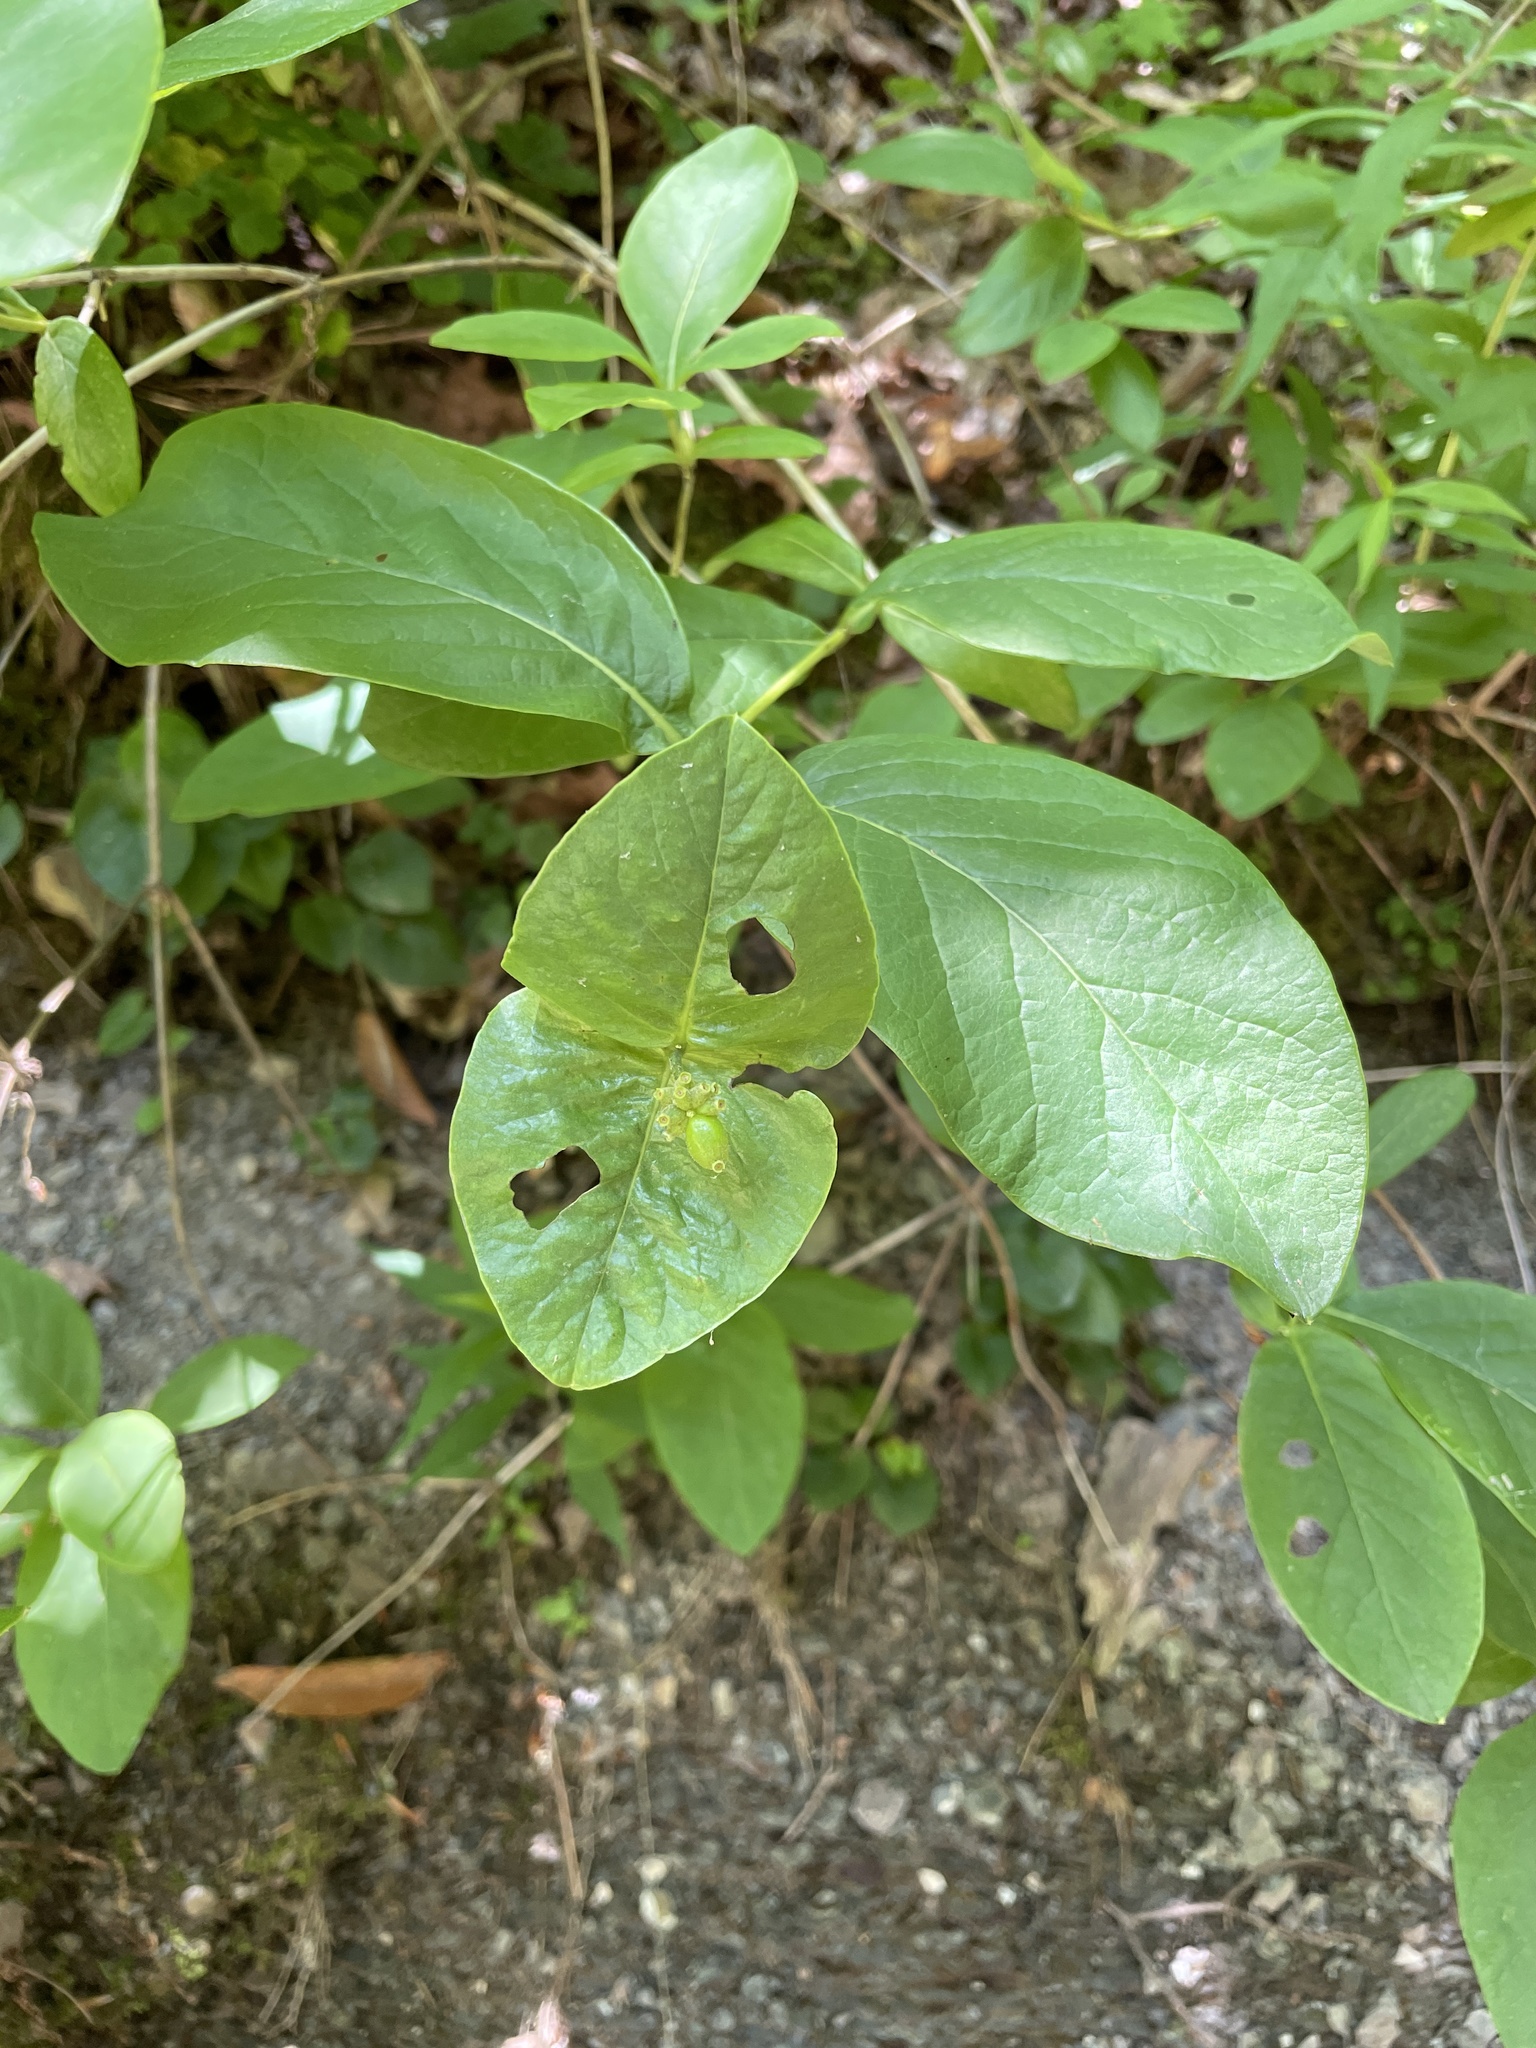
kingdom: Plantae
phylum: Tracheophyta
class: Magnoliopsida
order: Dipsacales
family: Caprifoliaceae
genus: Lonicera
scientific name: Lonicera dioica
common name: Limber honeysuckle
